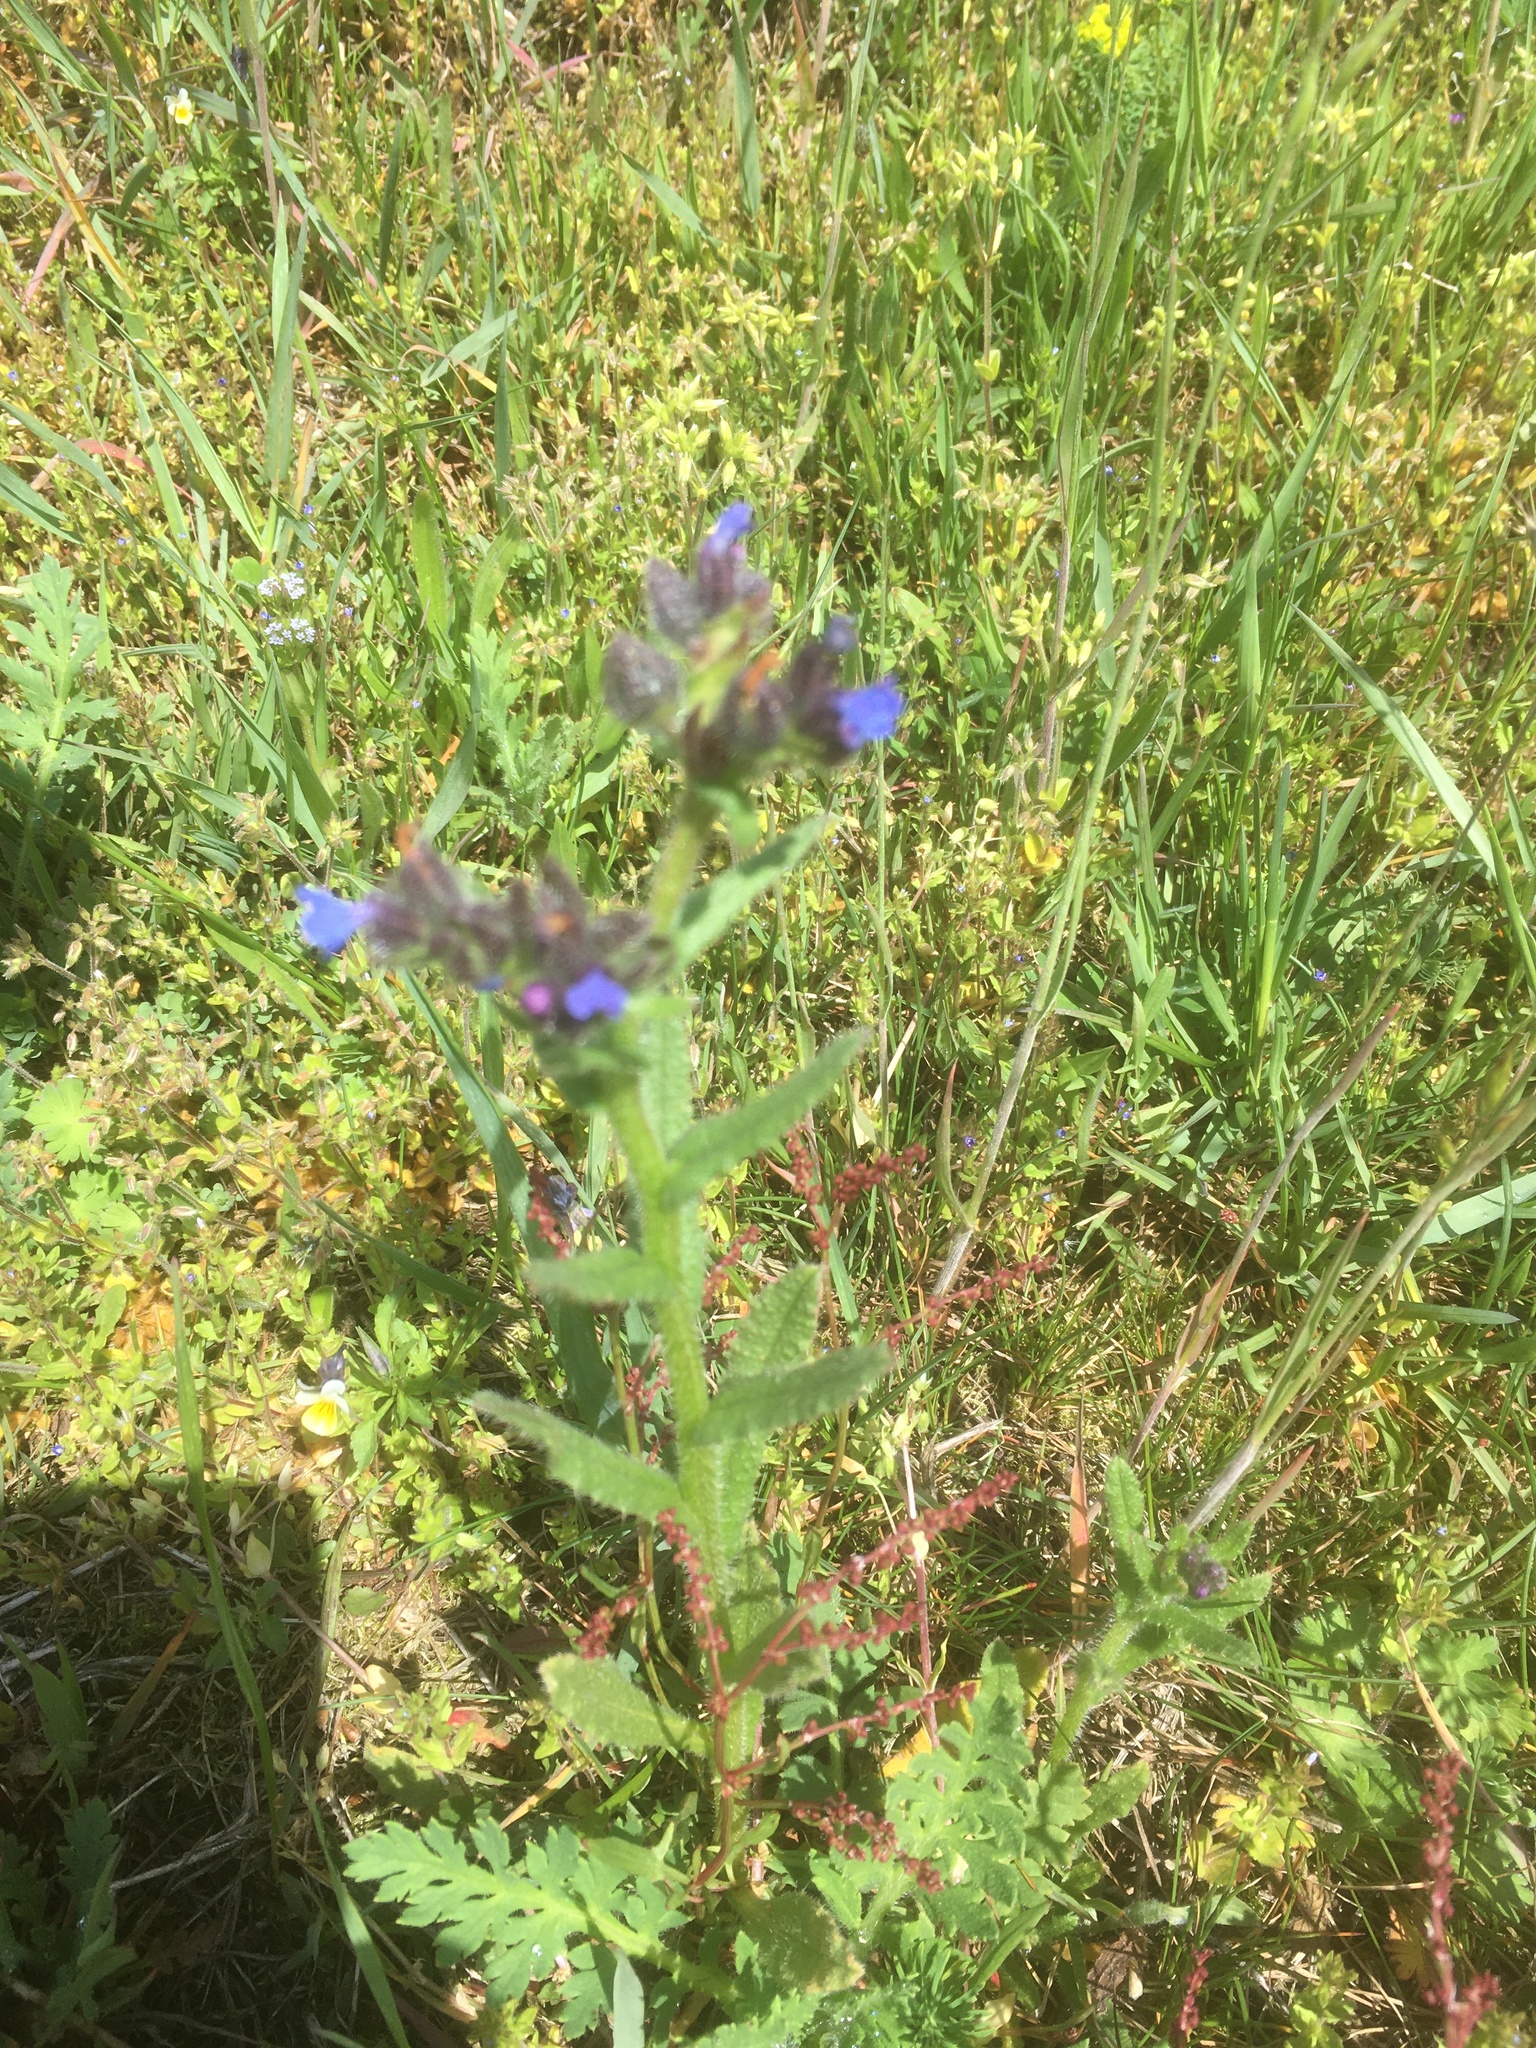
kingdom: Plantae
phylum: Tracheophyta
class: Magnoliopsida
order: Boraginales
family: Boraginaceae
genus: Lycopsis
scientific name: Lycopsis arvensis
